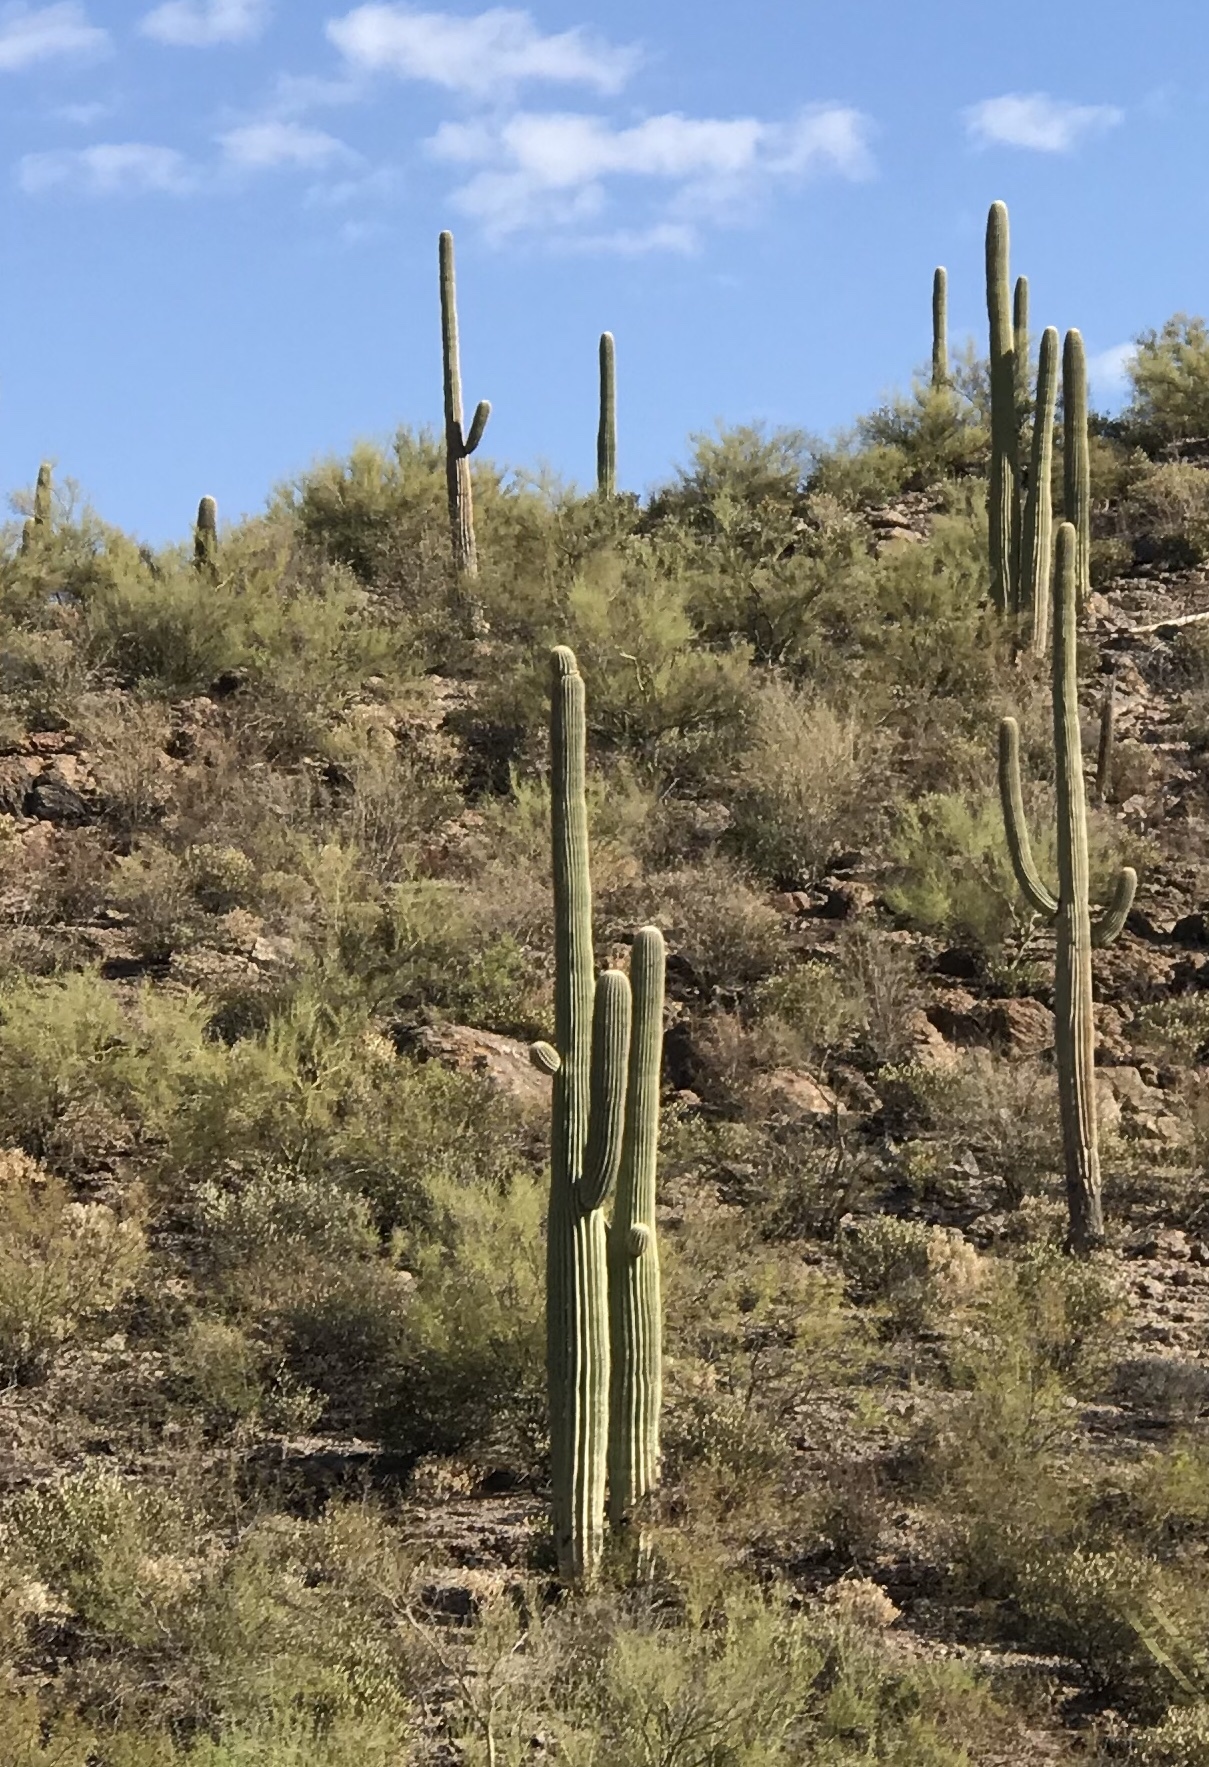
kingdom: Plantae
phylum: Tracheophyta
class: Magnoliopsida
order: Caryophyllales
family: Cactaceae
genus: Carnegiea
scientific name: Carnegiea gigantea
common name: Saguaro
